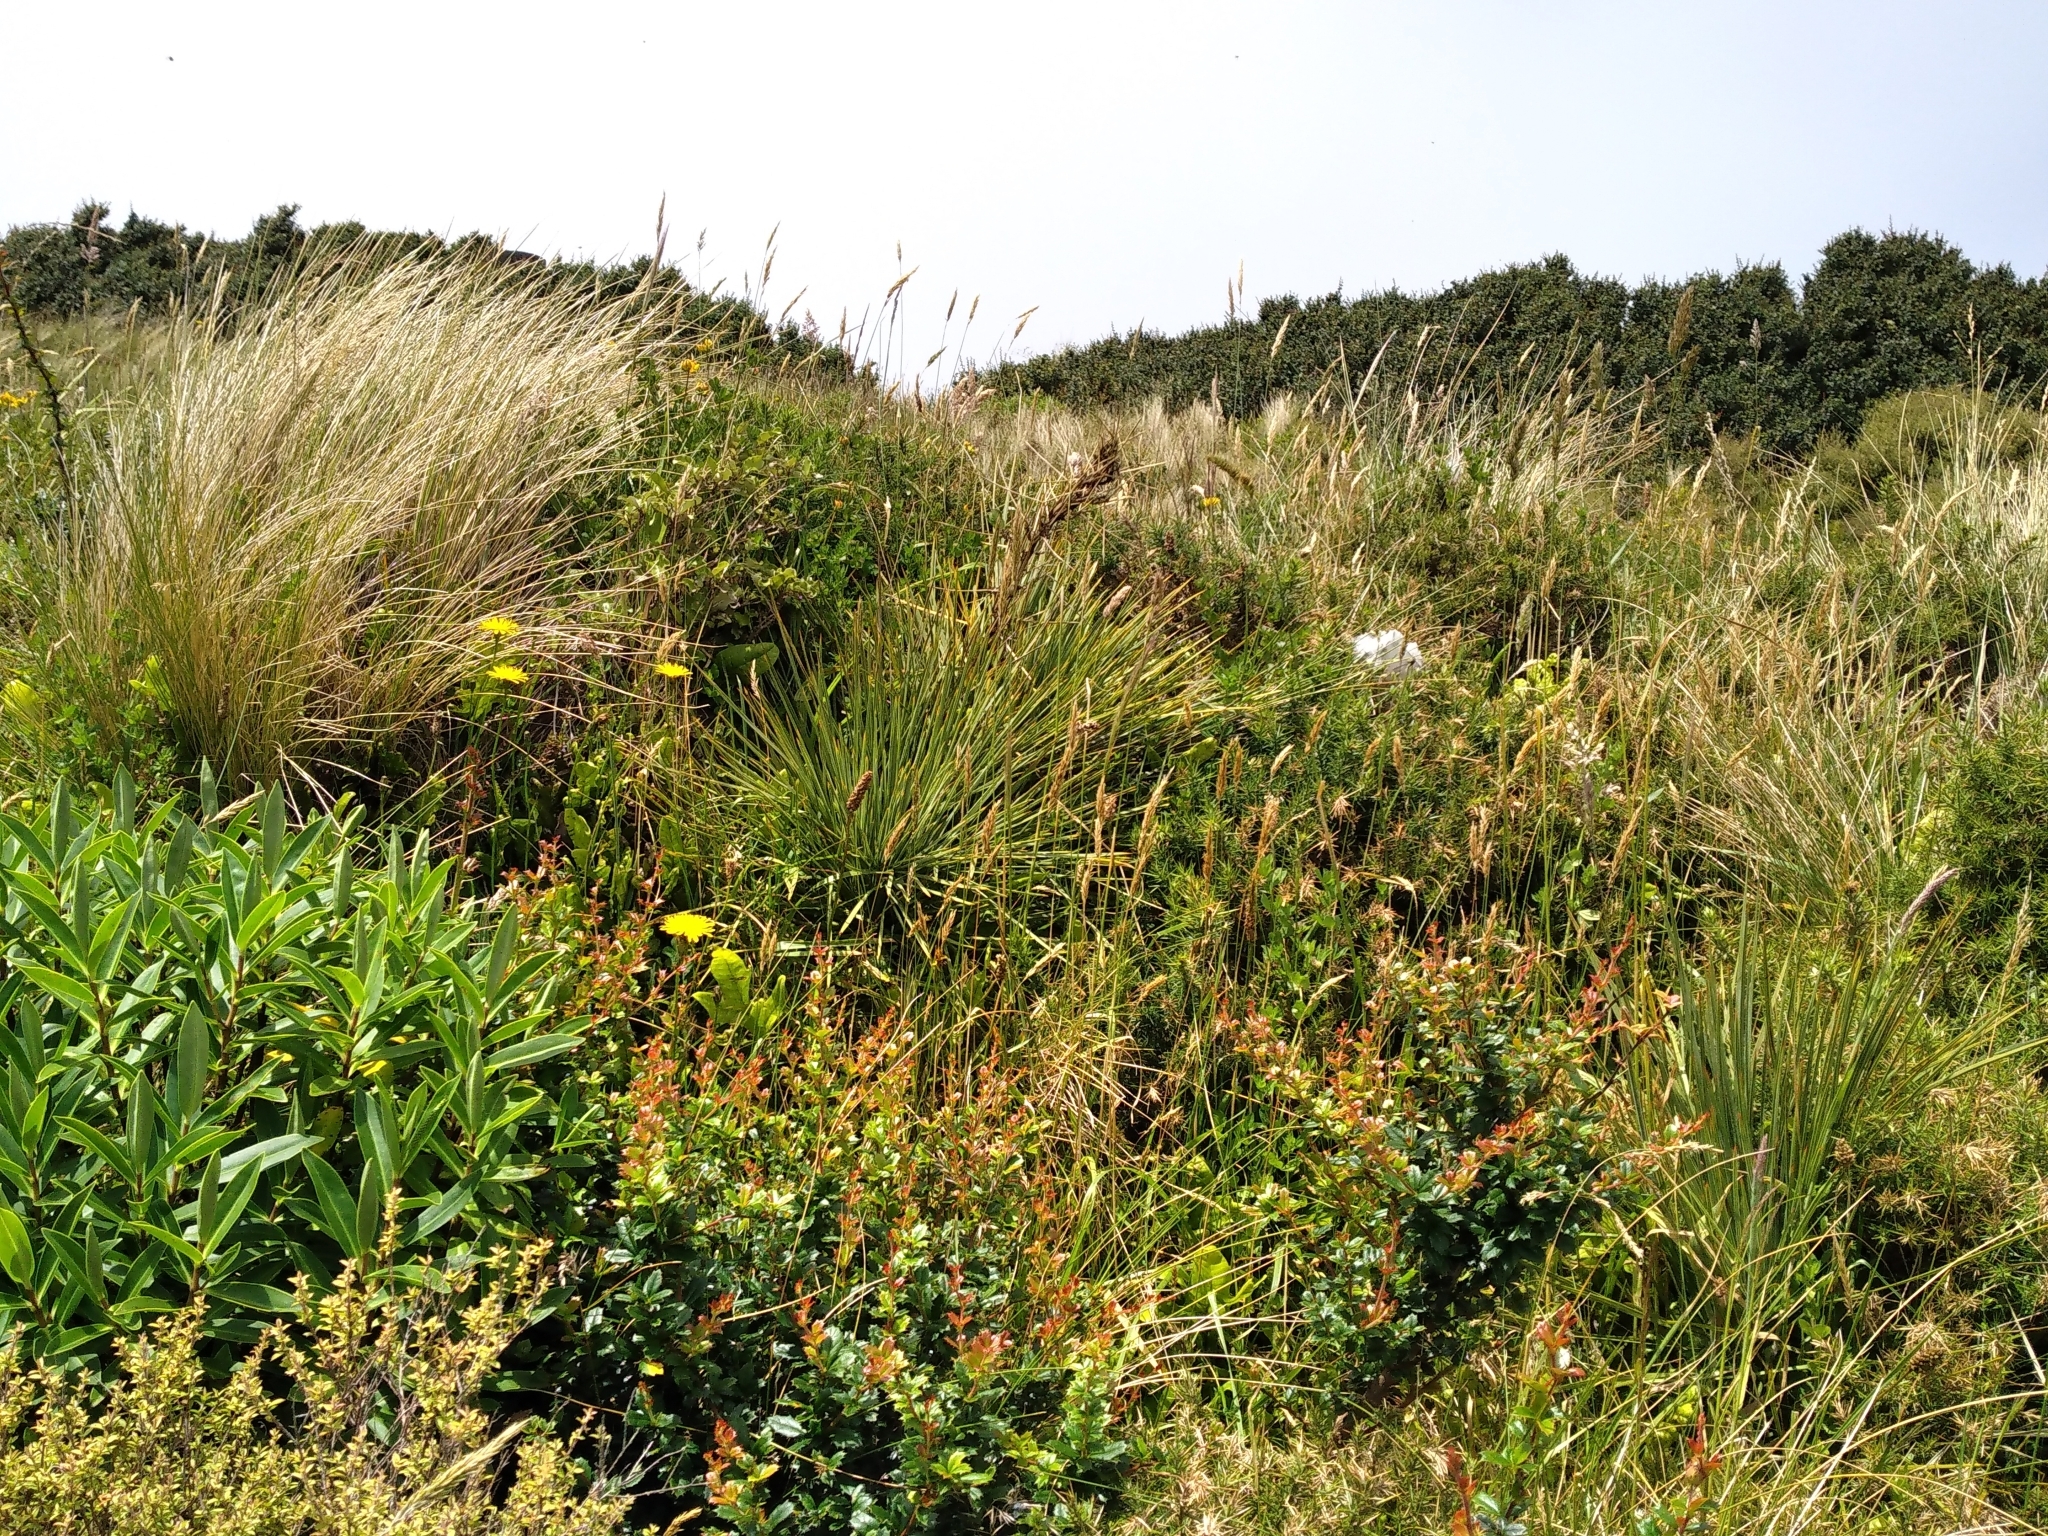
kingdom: Plantae
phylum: Tracheophyta
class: Magnoliopsida
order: Apiales
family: Apiaceae
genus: Aciphylla
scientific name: Aciphylla squarrosa
